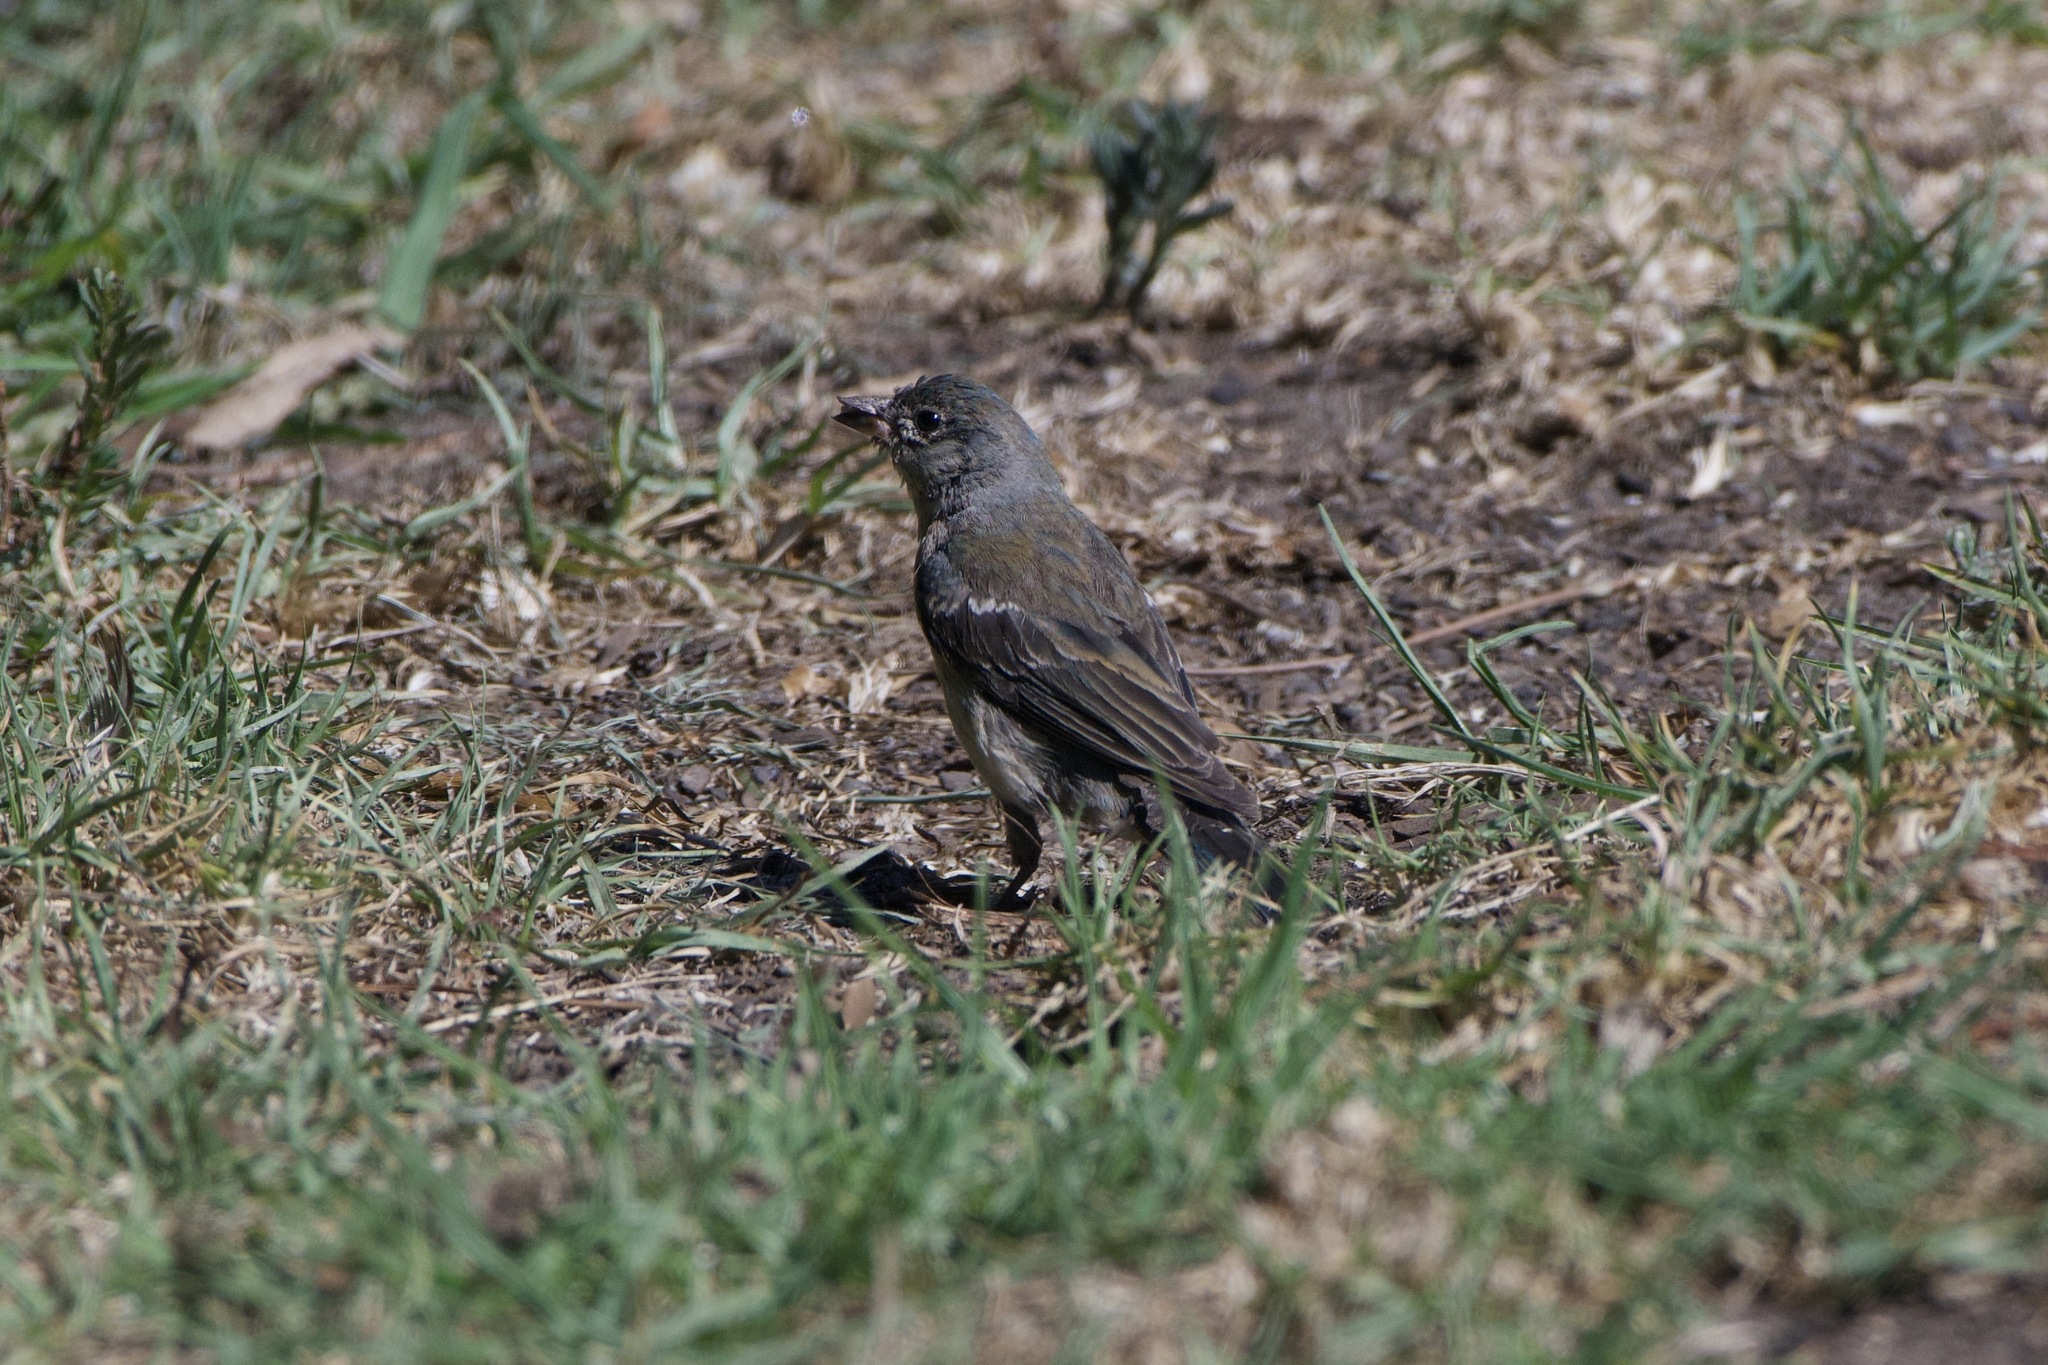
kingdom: Animalia
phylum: Chordata
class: Aves
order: Passeriformes
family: Cardinalidae
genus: Passerina
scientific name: Passerina amoena
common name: Lazuli bunting
